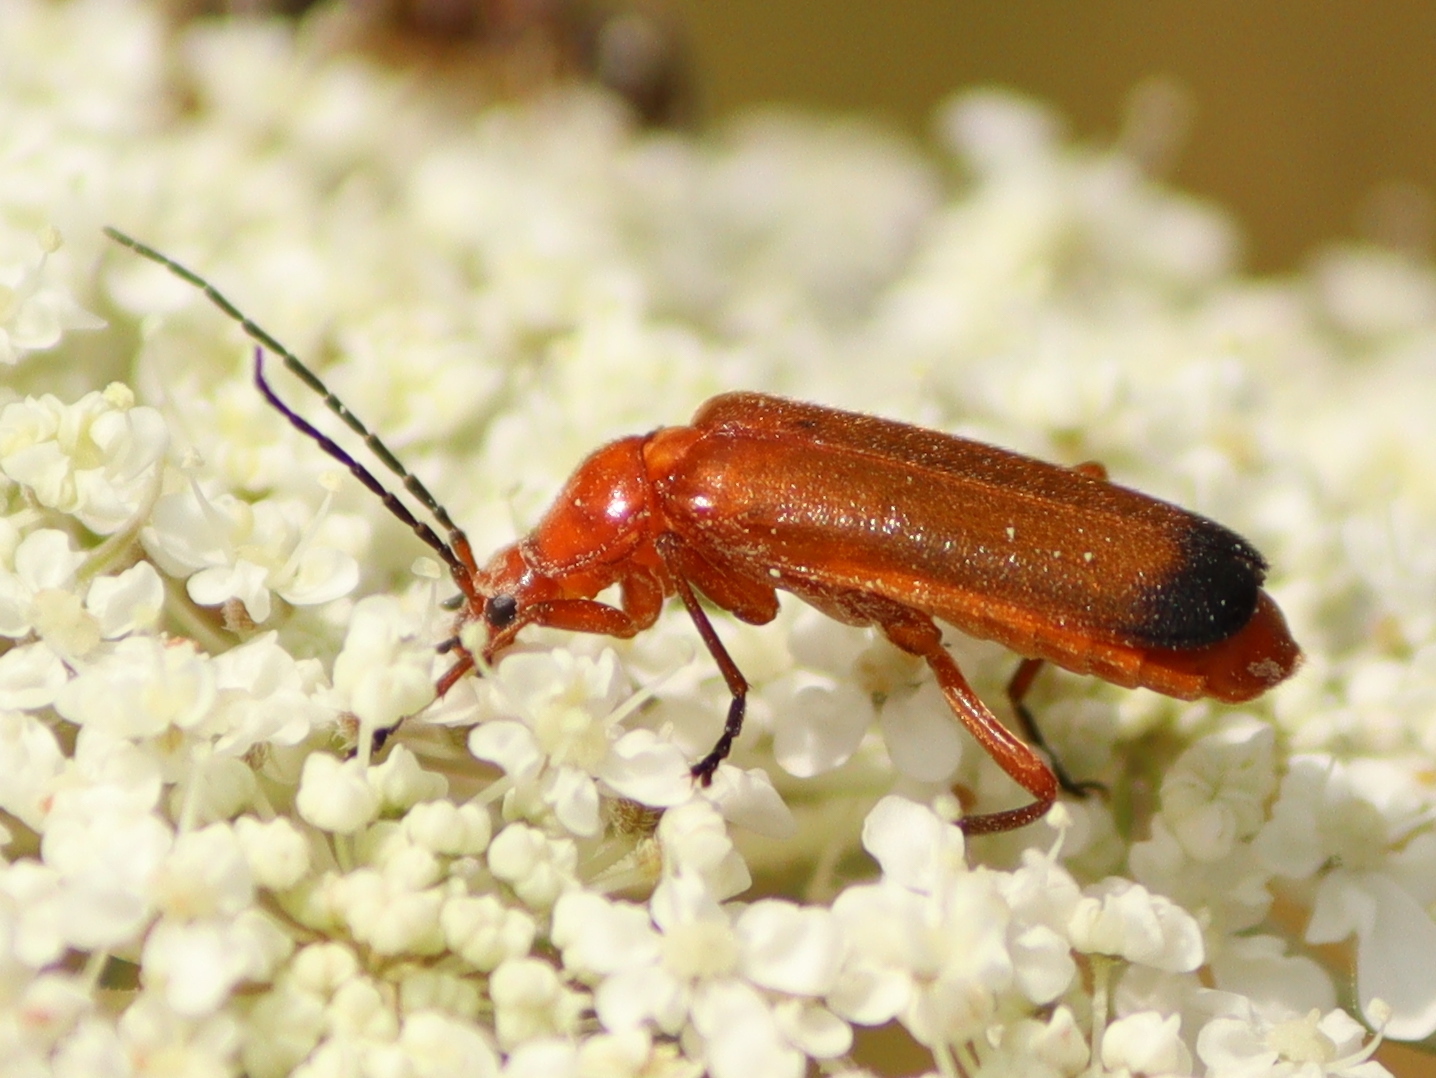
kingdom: Animalia
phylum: Arthropoda
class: Insecta
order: Coleoptera
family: Cantharidae
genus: Rhagonycha
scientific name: Rhagonycha fulva
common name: Common red soldier beetle
